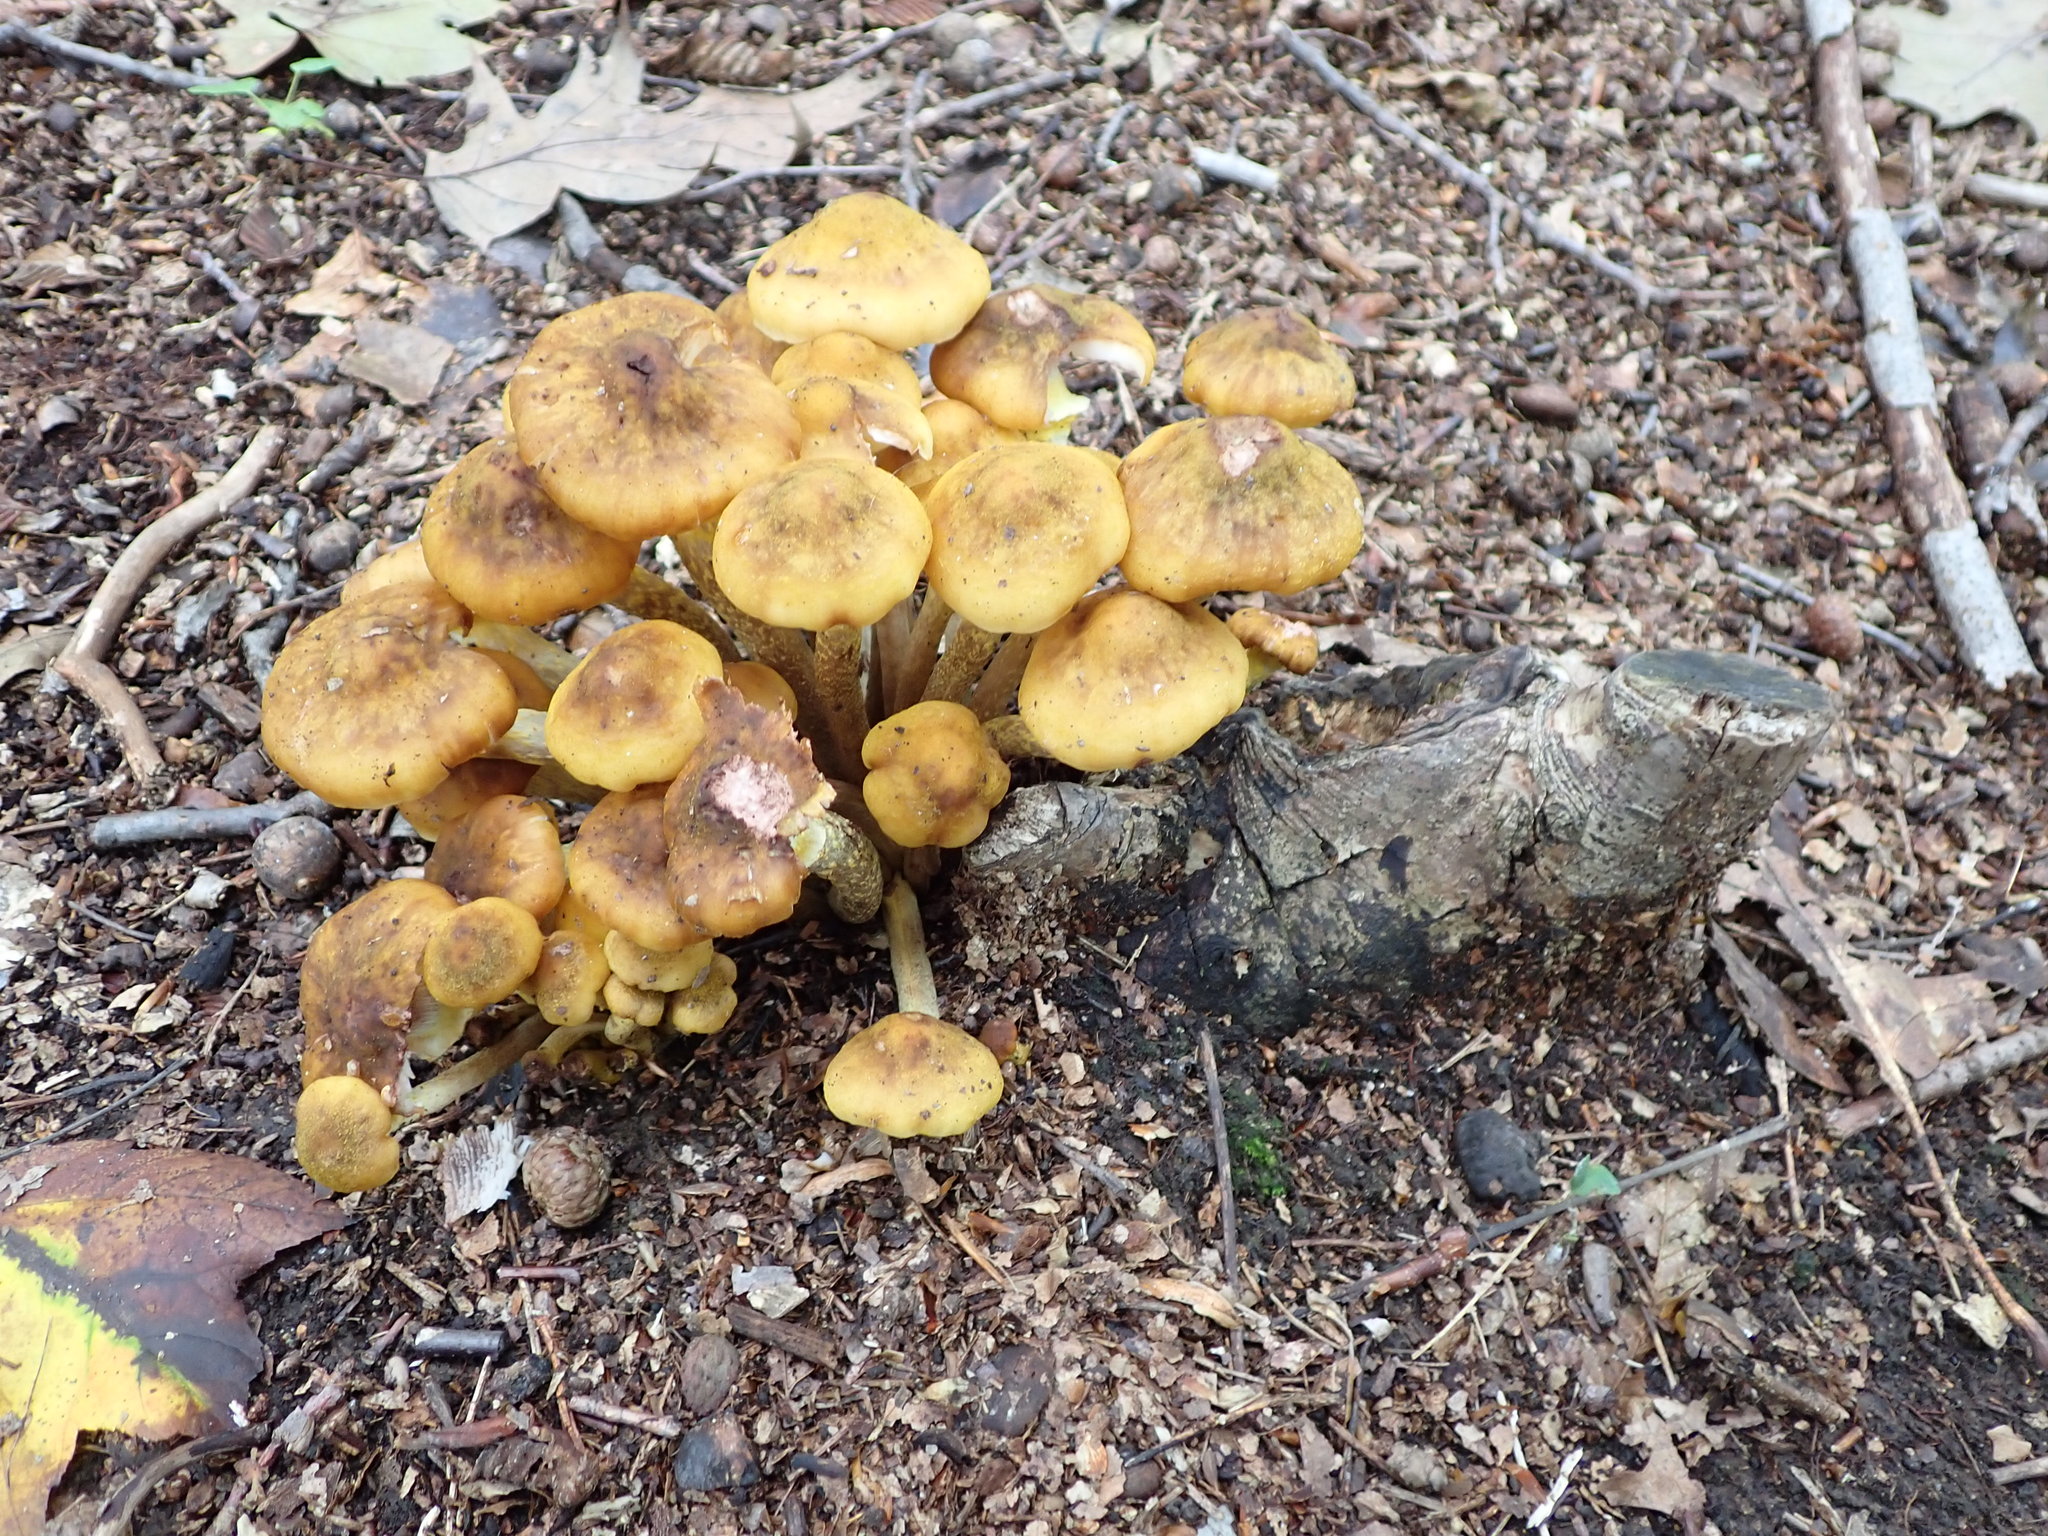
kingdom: Fungi
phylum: Basidiomycota
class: Agaricomycetes
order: Agaricales
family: Physalacriaceae
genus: Armillaria
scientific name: Armillaria mellea
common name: Honey fungus
